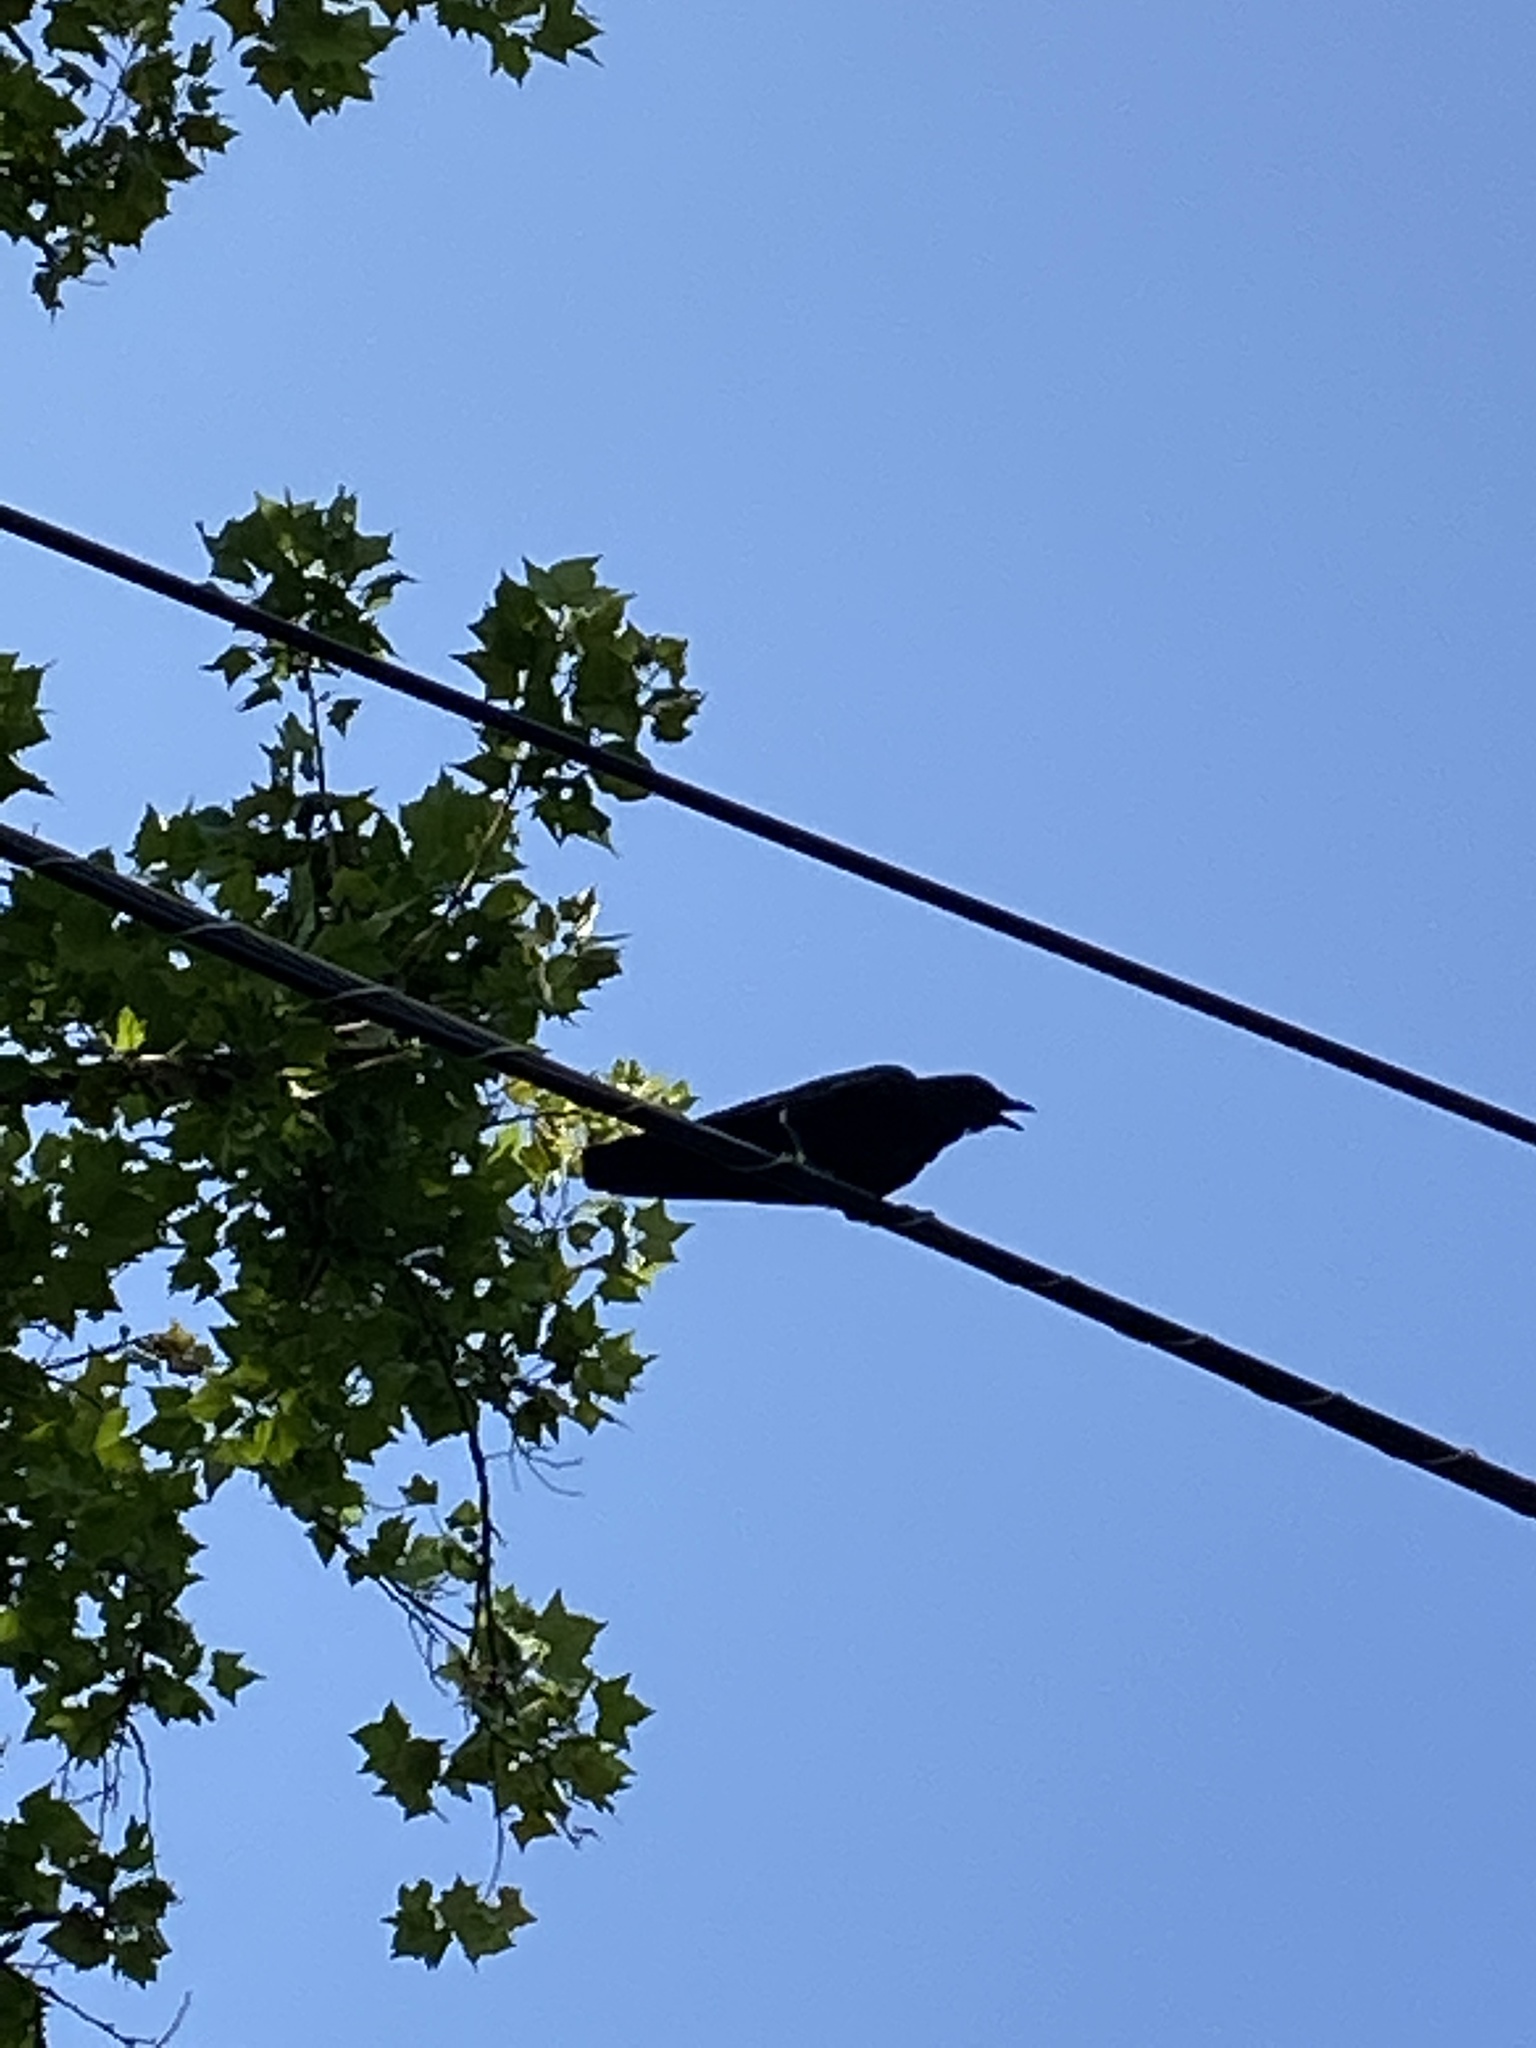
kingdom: Animalia
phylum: Chordata
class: Aves
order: Passeriformes
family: Corvidae
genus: Corvus
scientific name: Corvus brachyrhynchos
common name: American crow
